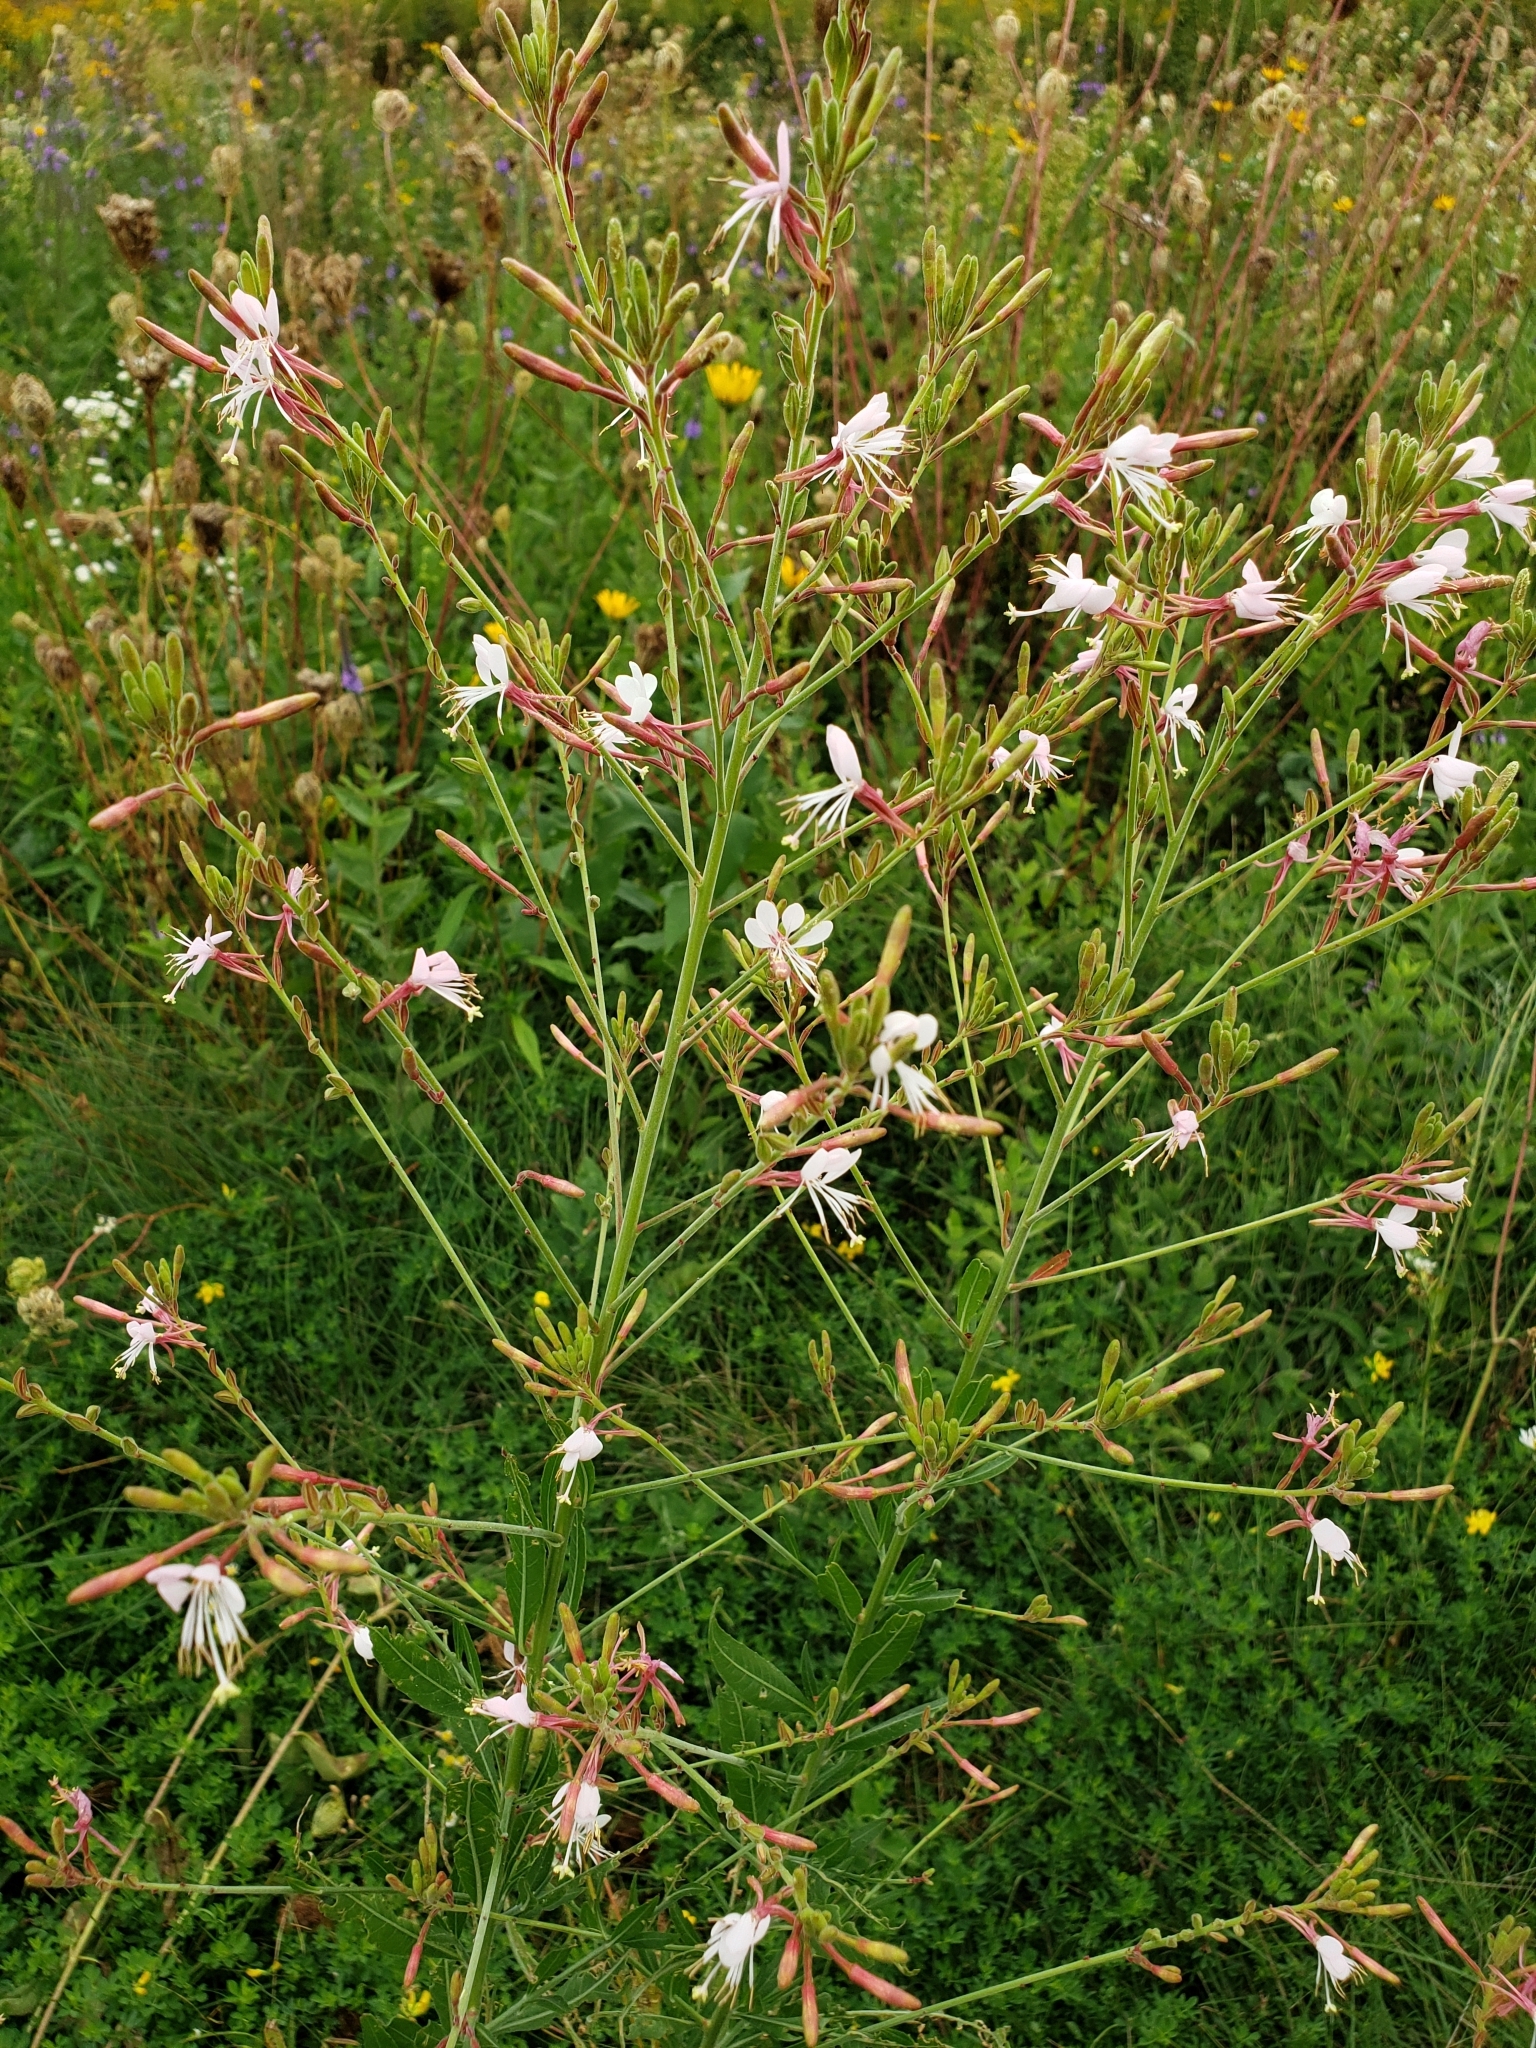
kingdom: Plantae
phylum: Tracheophyta
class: Magnoliopsida
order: Myrtales
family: Onagraceae
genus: Oenothera
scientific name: Oenothera gaura
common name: Biennial beeblossom
